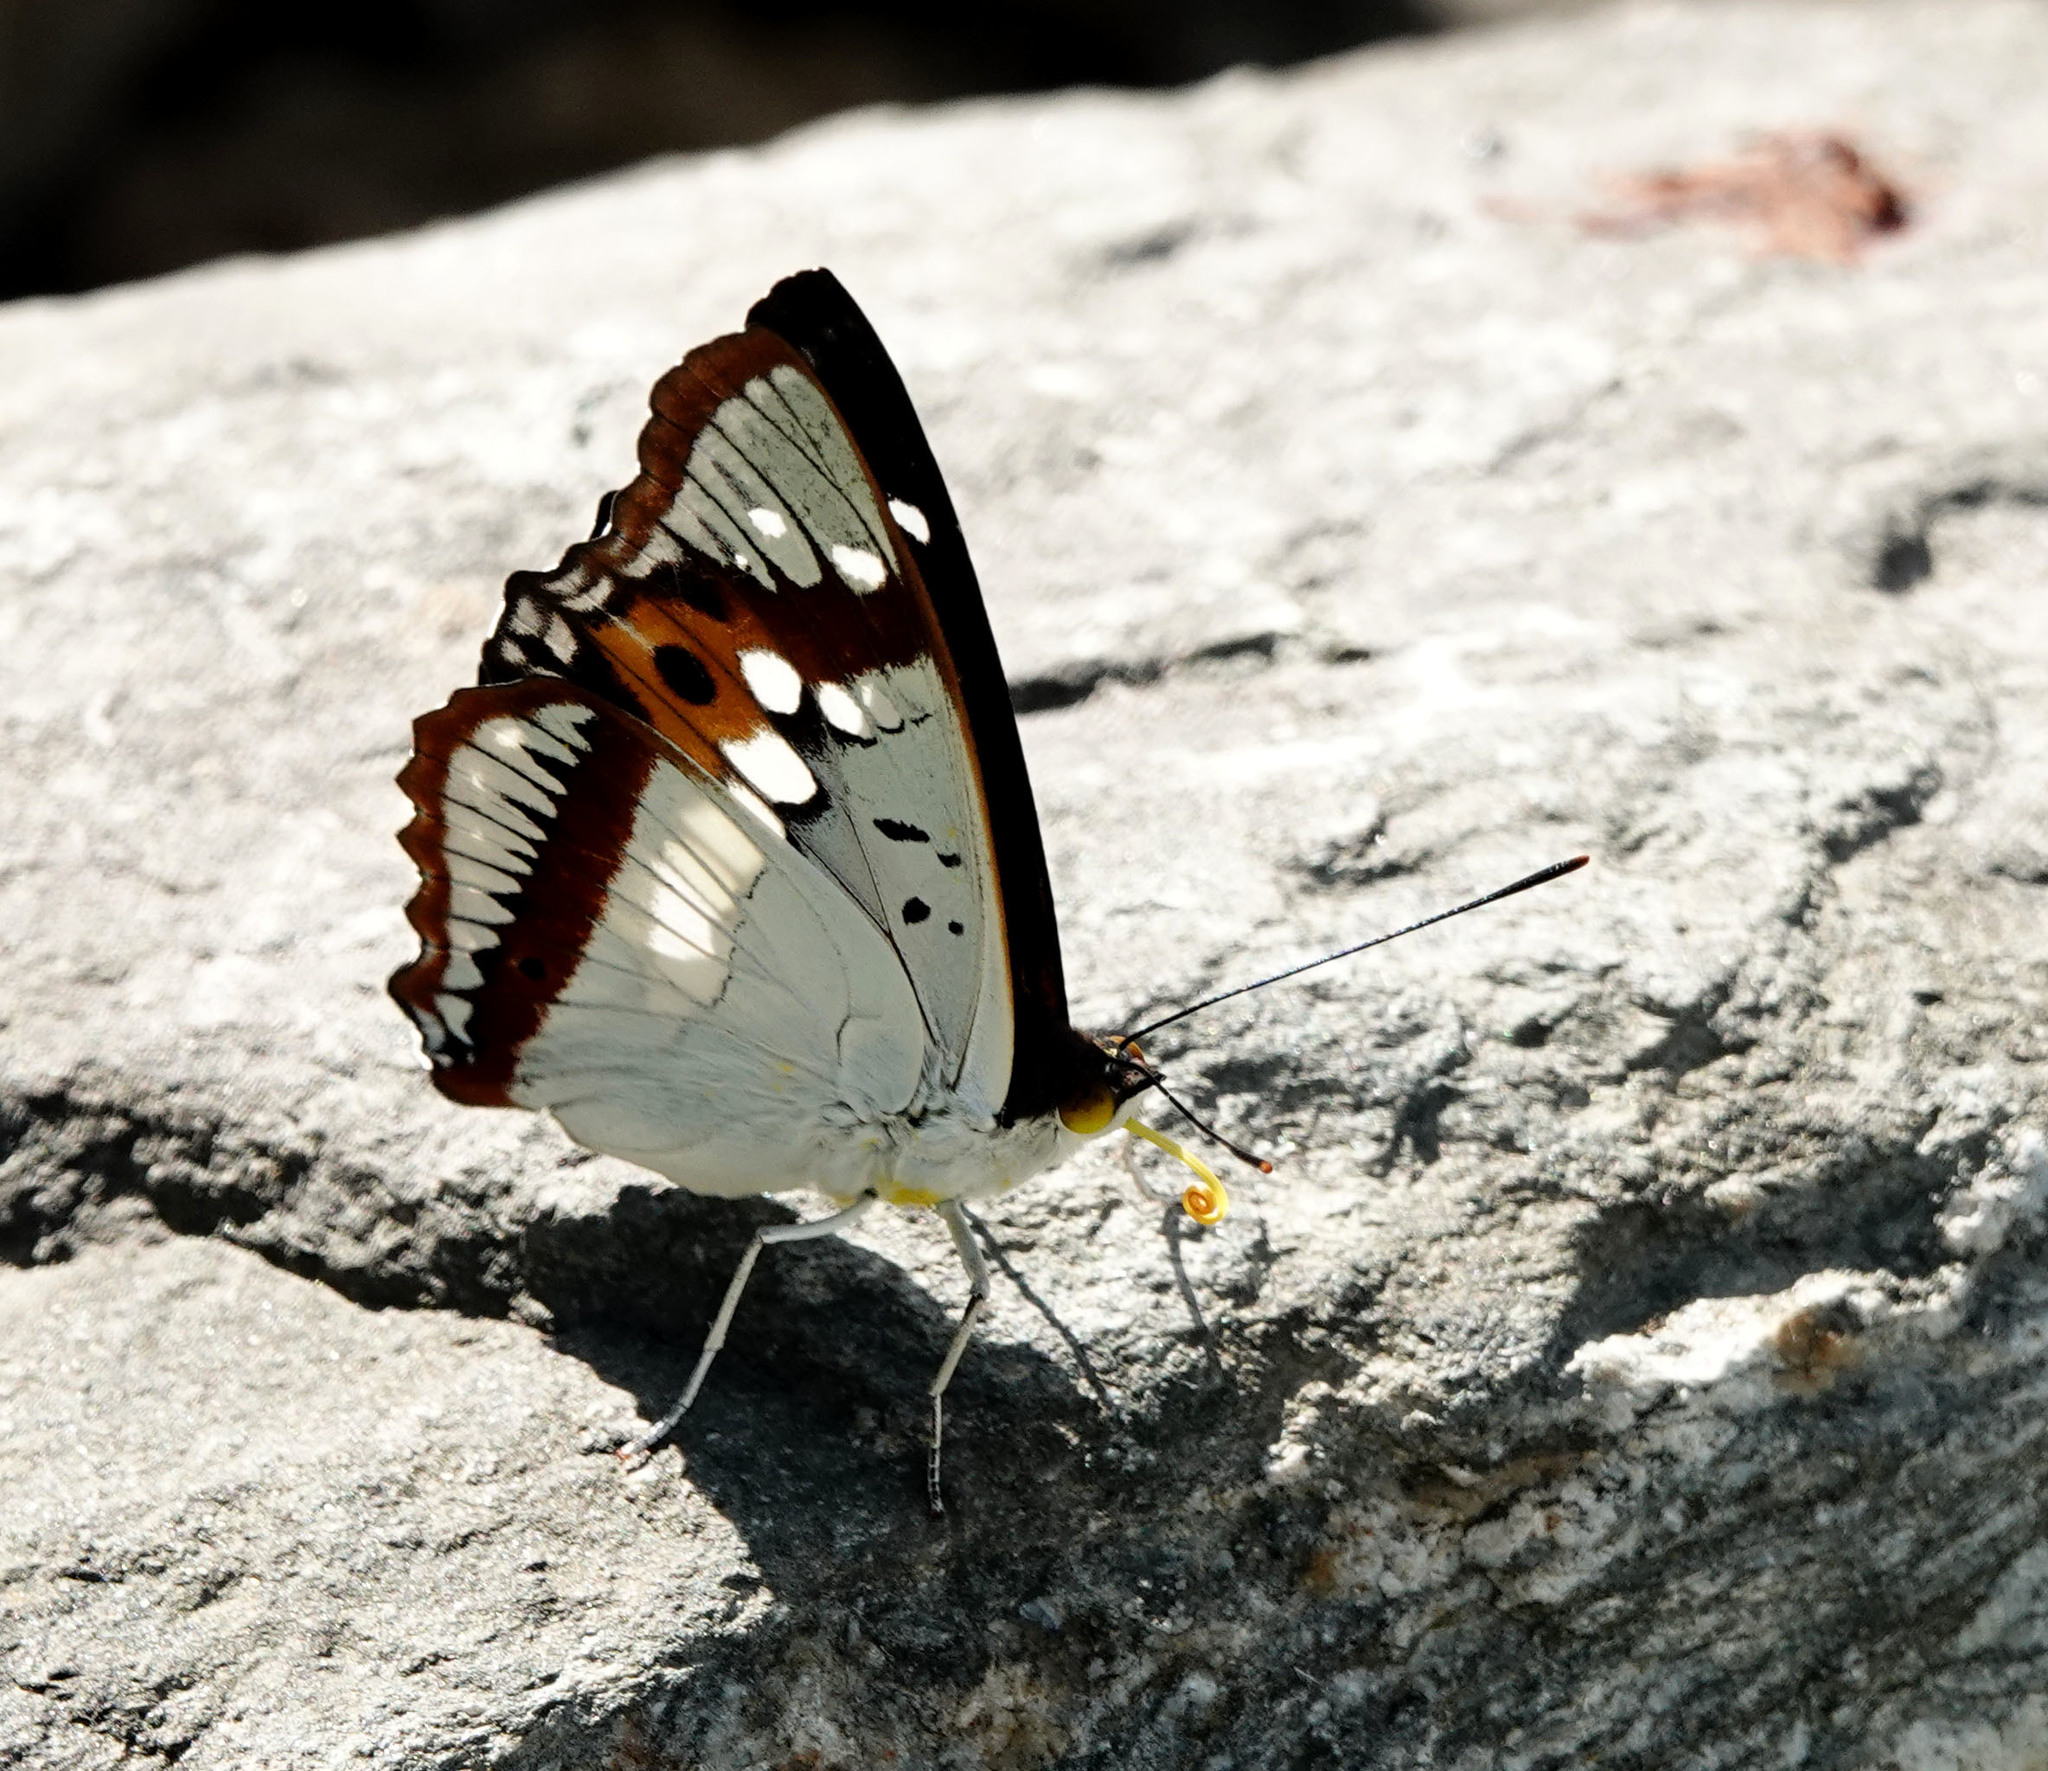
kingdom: Animalia
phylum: Arthropoda
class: Insecta
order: Lepidoptera
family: Nymphalidae
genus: Apatura
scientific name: Apatura Mimathyma ambica
